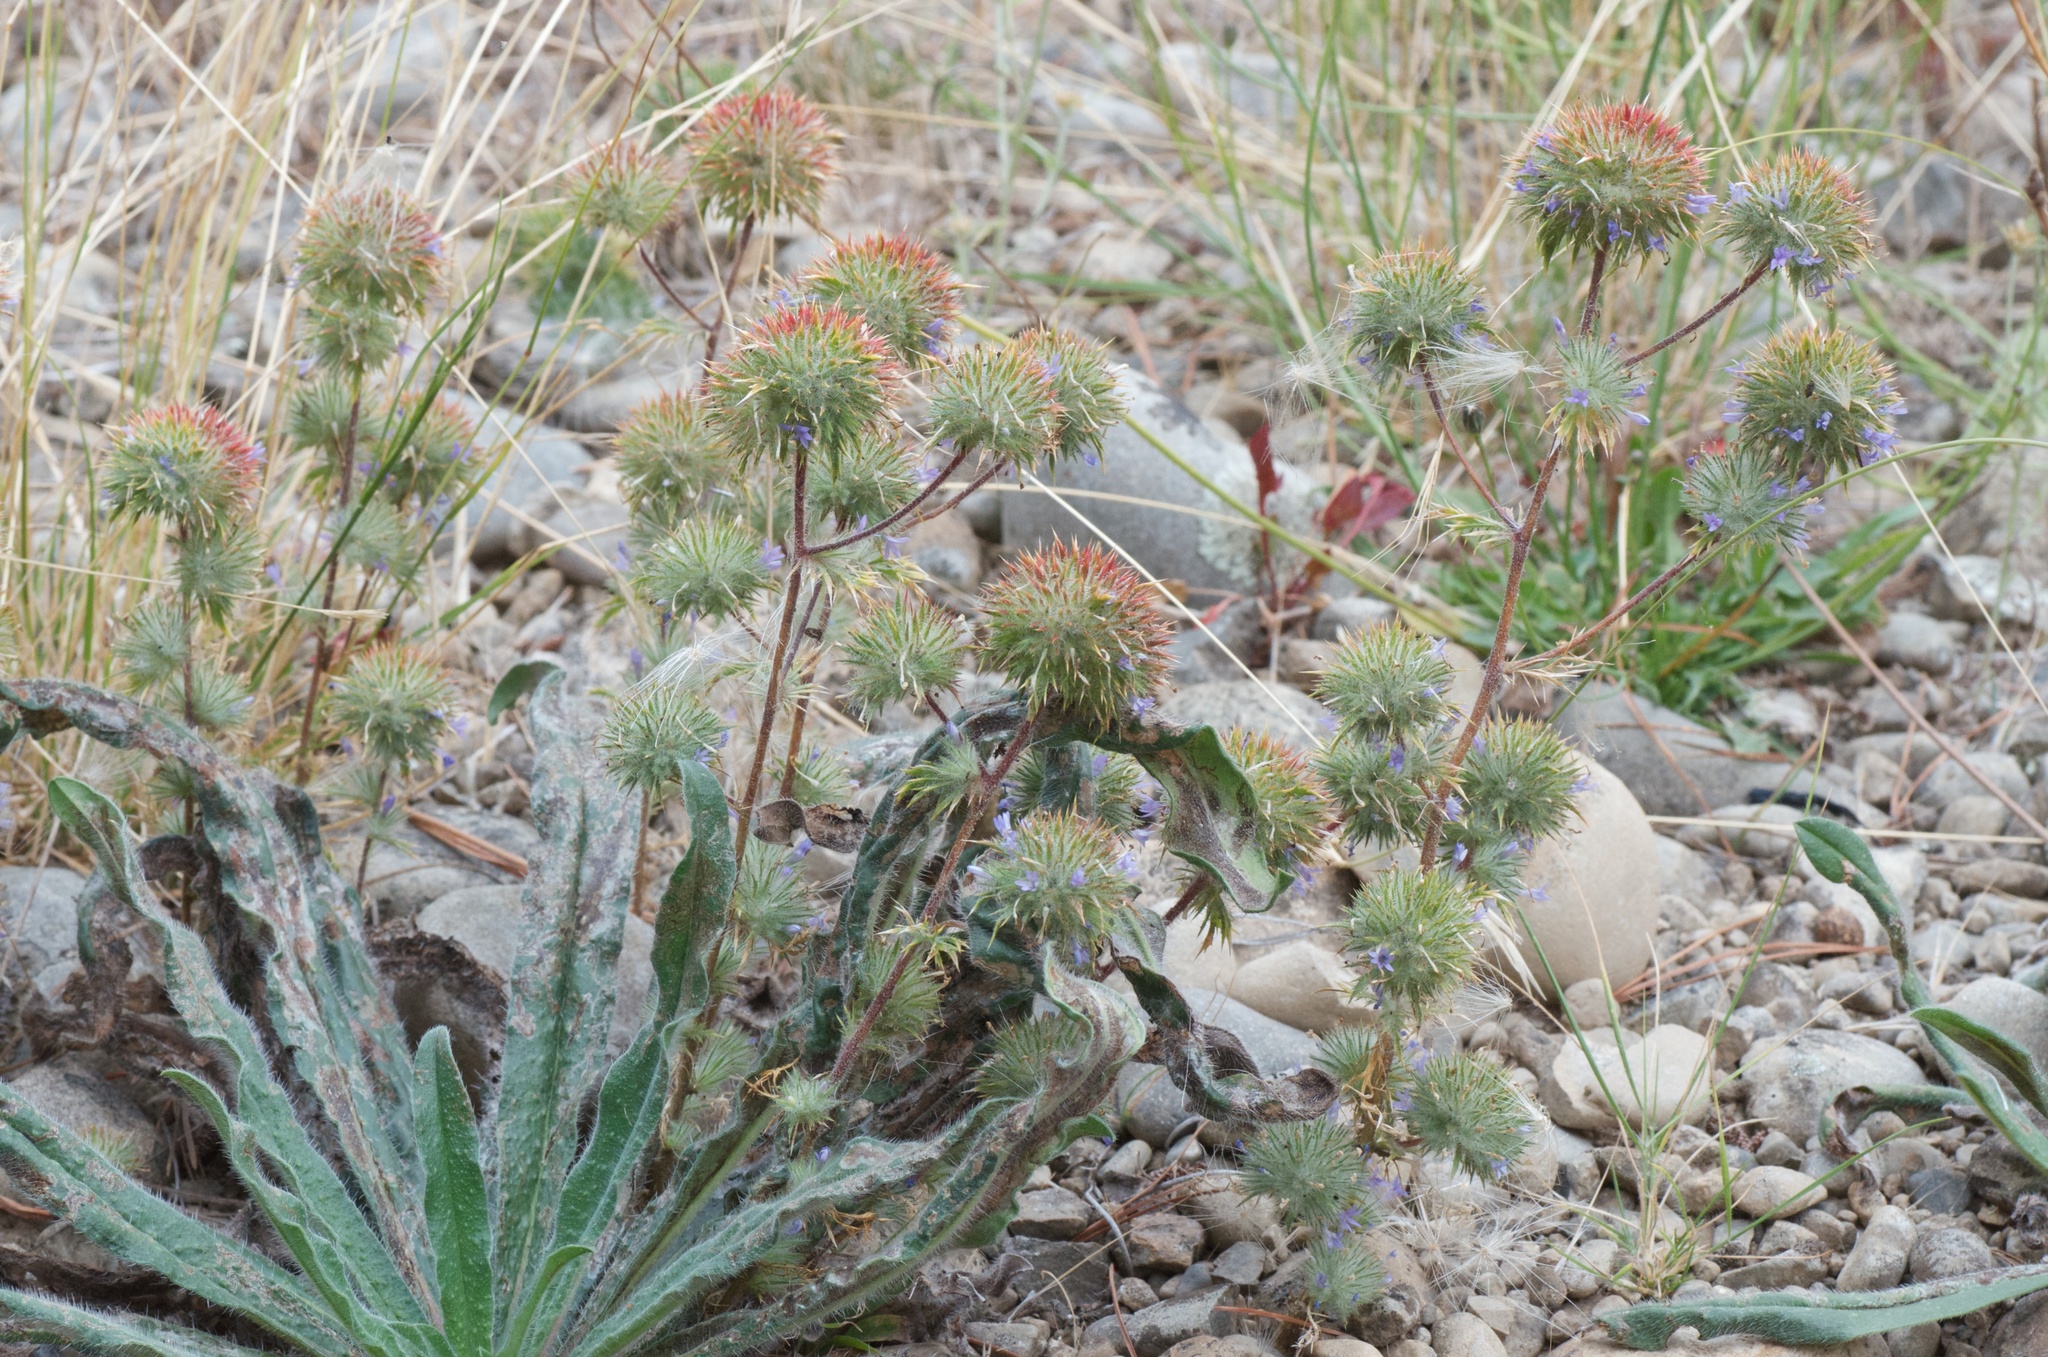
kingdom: Plantae
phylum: Tracheophyta
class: Magnoliopsida
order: Ericales
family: Polemoniaceae
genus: Navarretia
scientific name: Navarretia squarrosa
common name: Skunkweed
